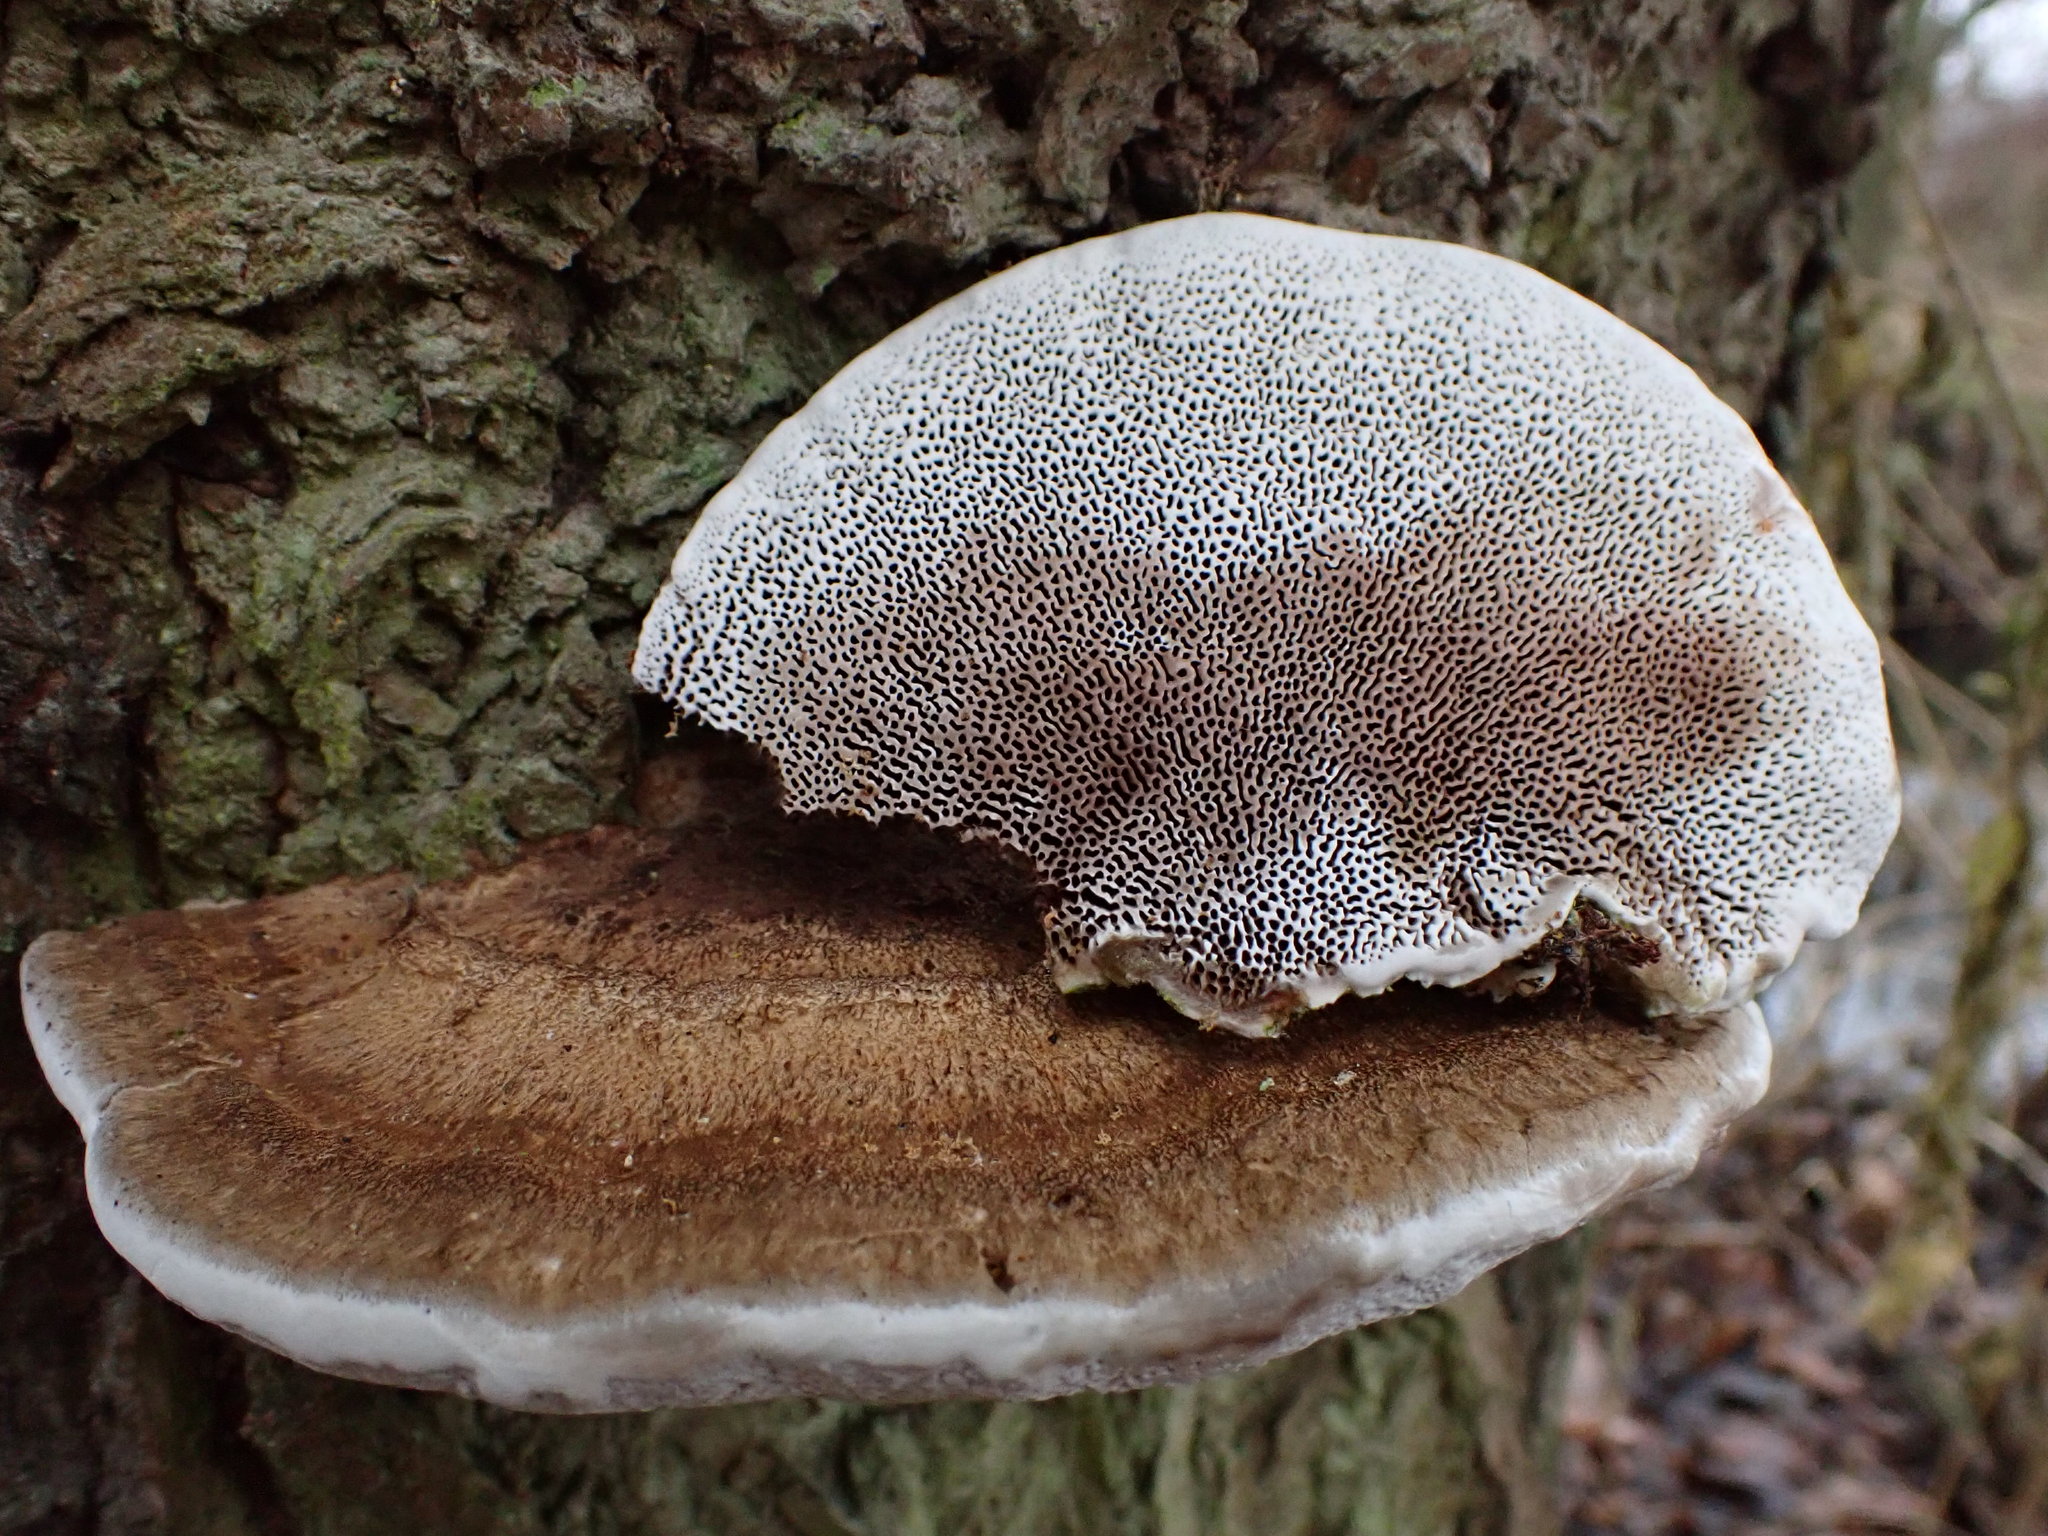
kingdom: Fungi
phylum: Basidiomycota
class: Agaricomycetes
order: Polyporales
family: Polyporaceae
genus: Daedaleopsis
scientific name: Daedaleopsis confragosa
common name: Blushing bracket
